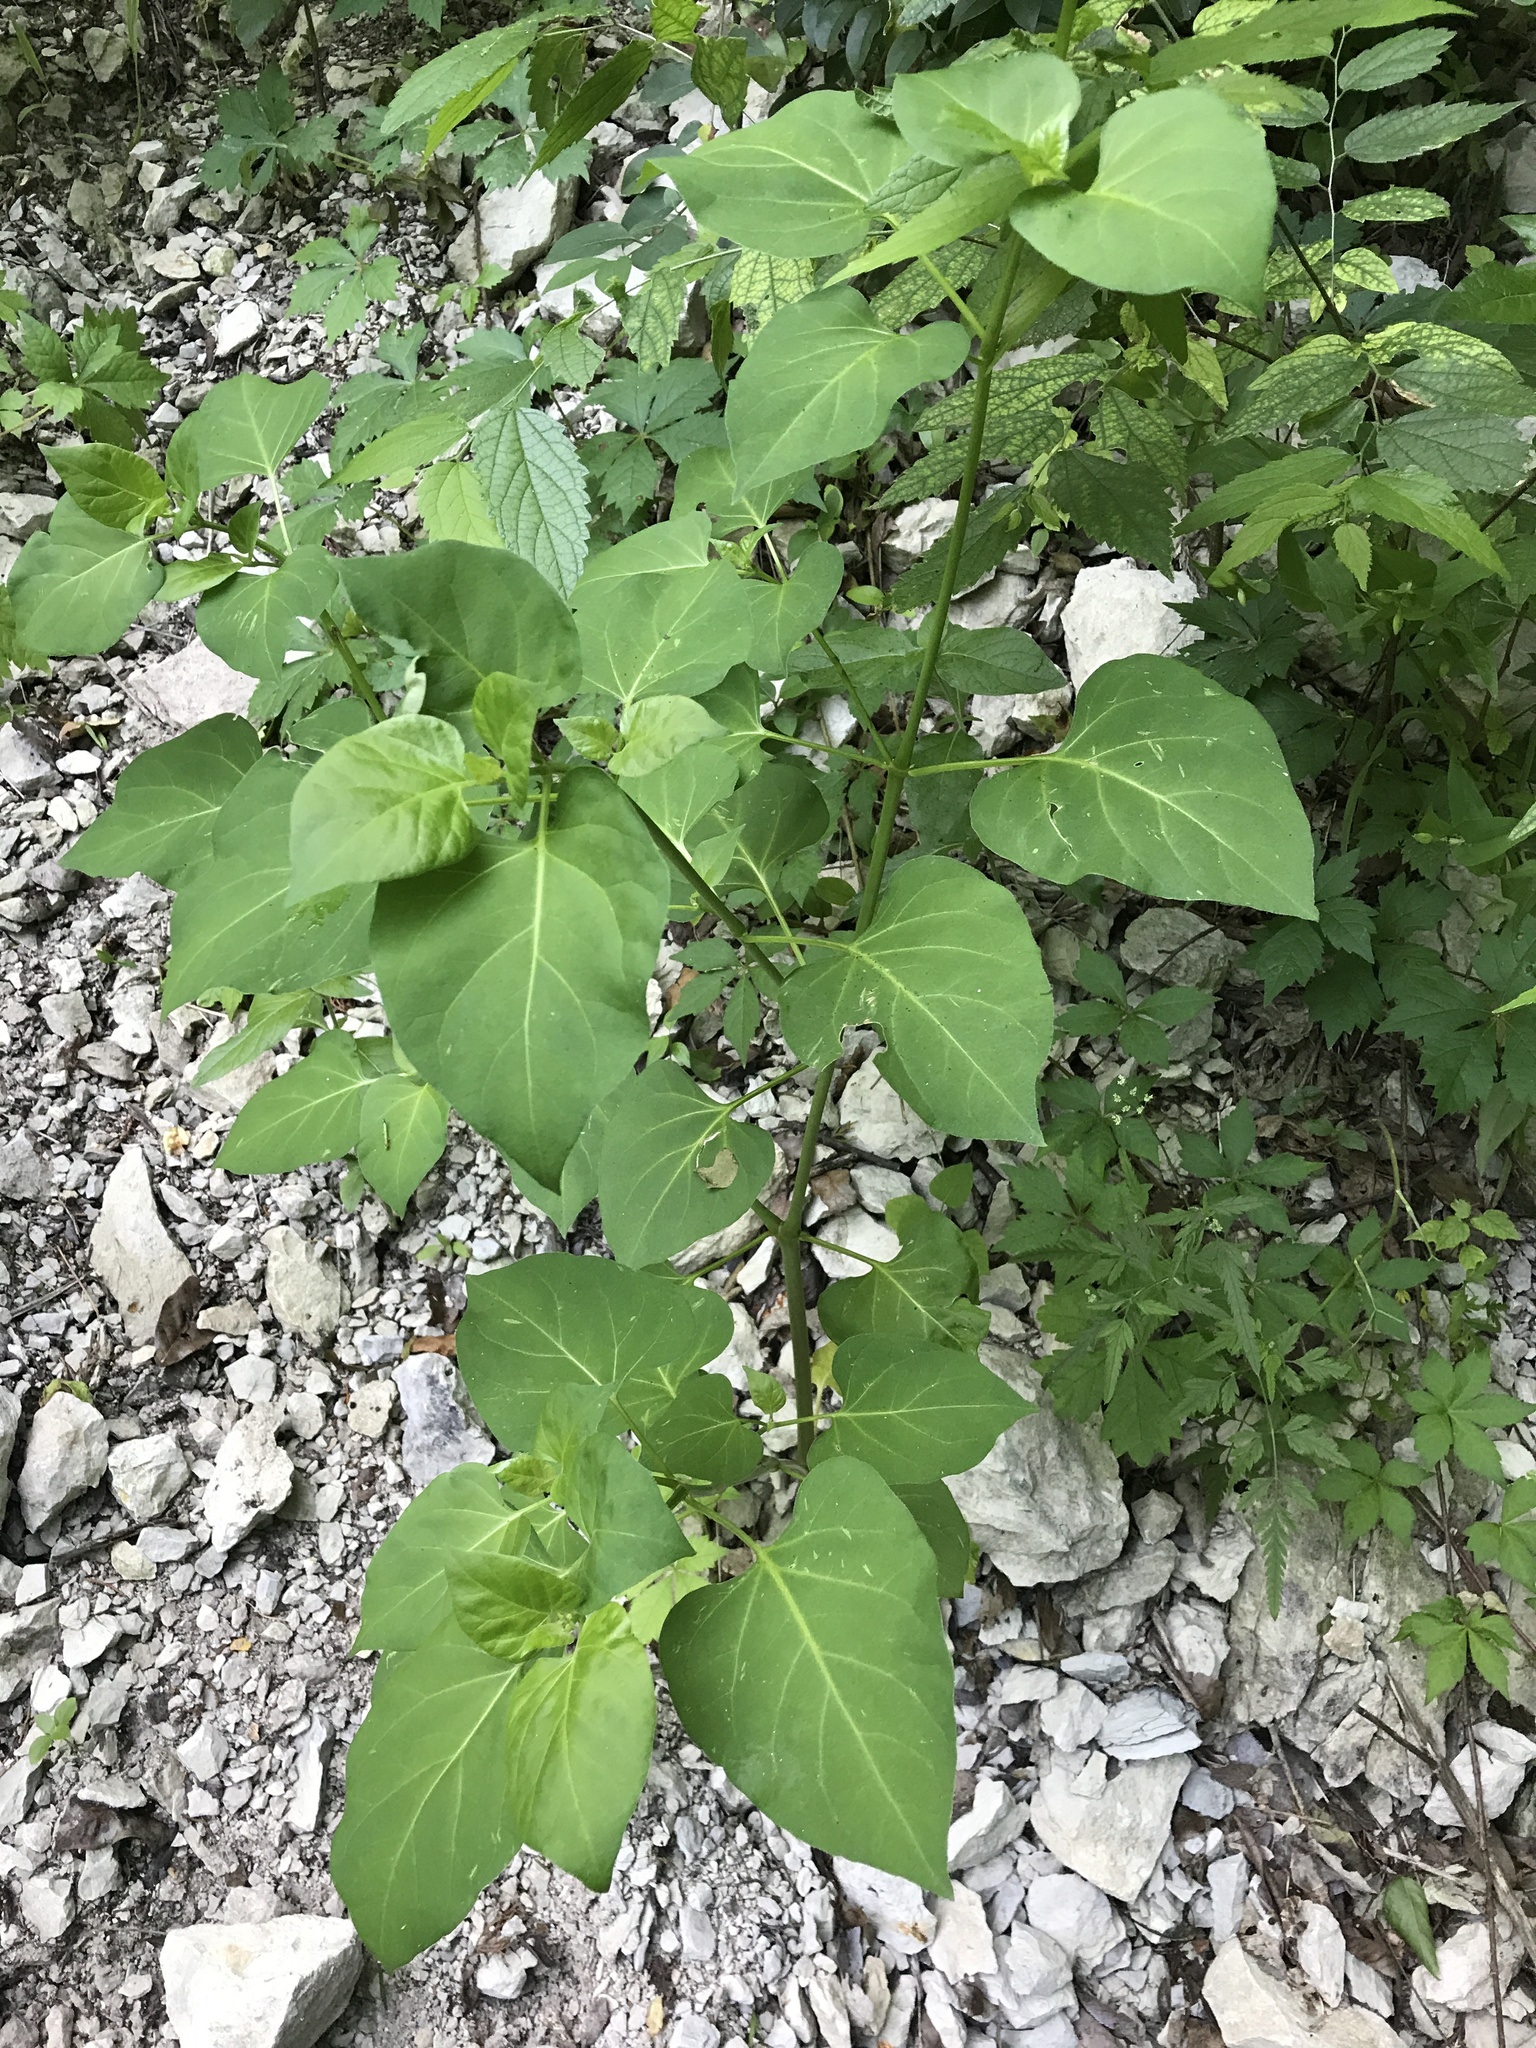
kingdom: Plantae
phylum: Tracheophyta
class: Magnoliopsida
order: Caryophyllales
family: Nyctaginaceae
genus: Mirabilis
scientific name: Mirabilis jalapa
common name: Marvel-of-peru
